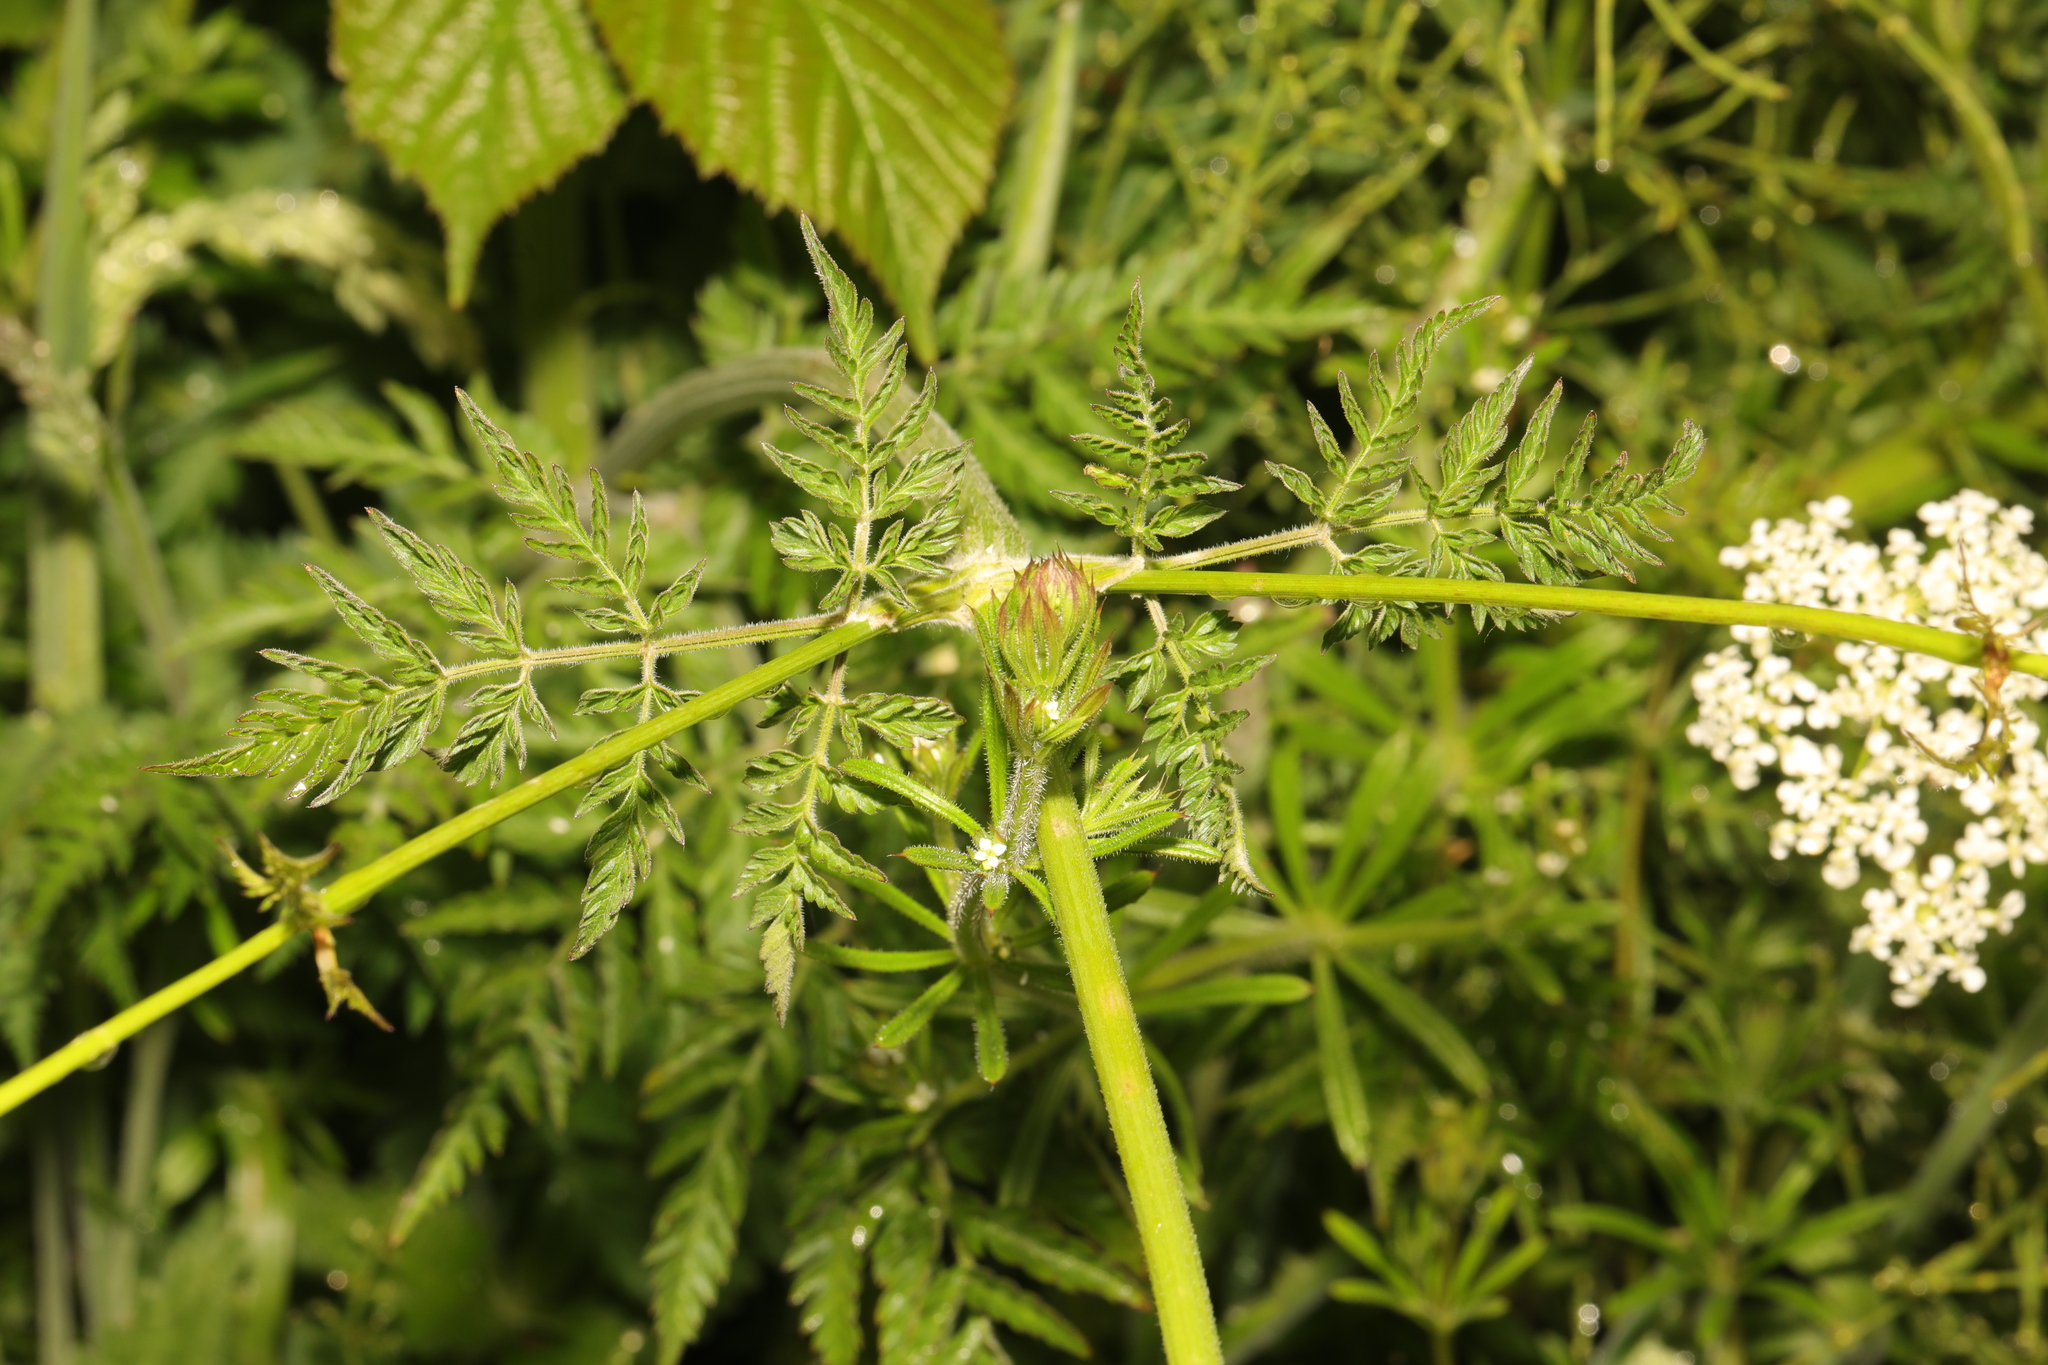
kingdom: Plantae
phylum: Tracheophyta
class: Magnoliopsida
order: Apiales
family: Apiaceae
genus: Anthriscus
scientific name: Anthriscus sylvestris
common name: Cow parsley
